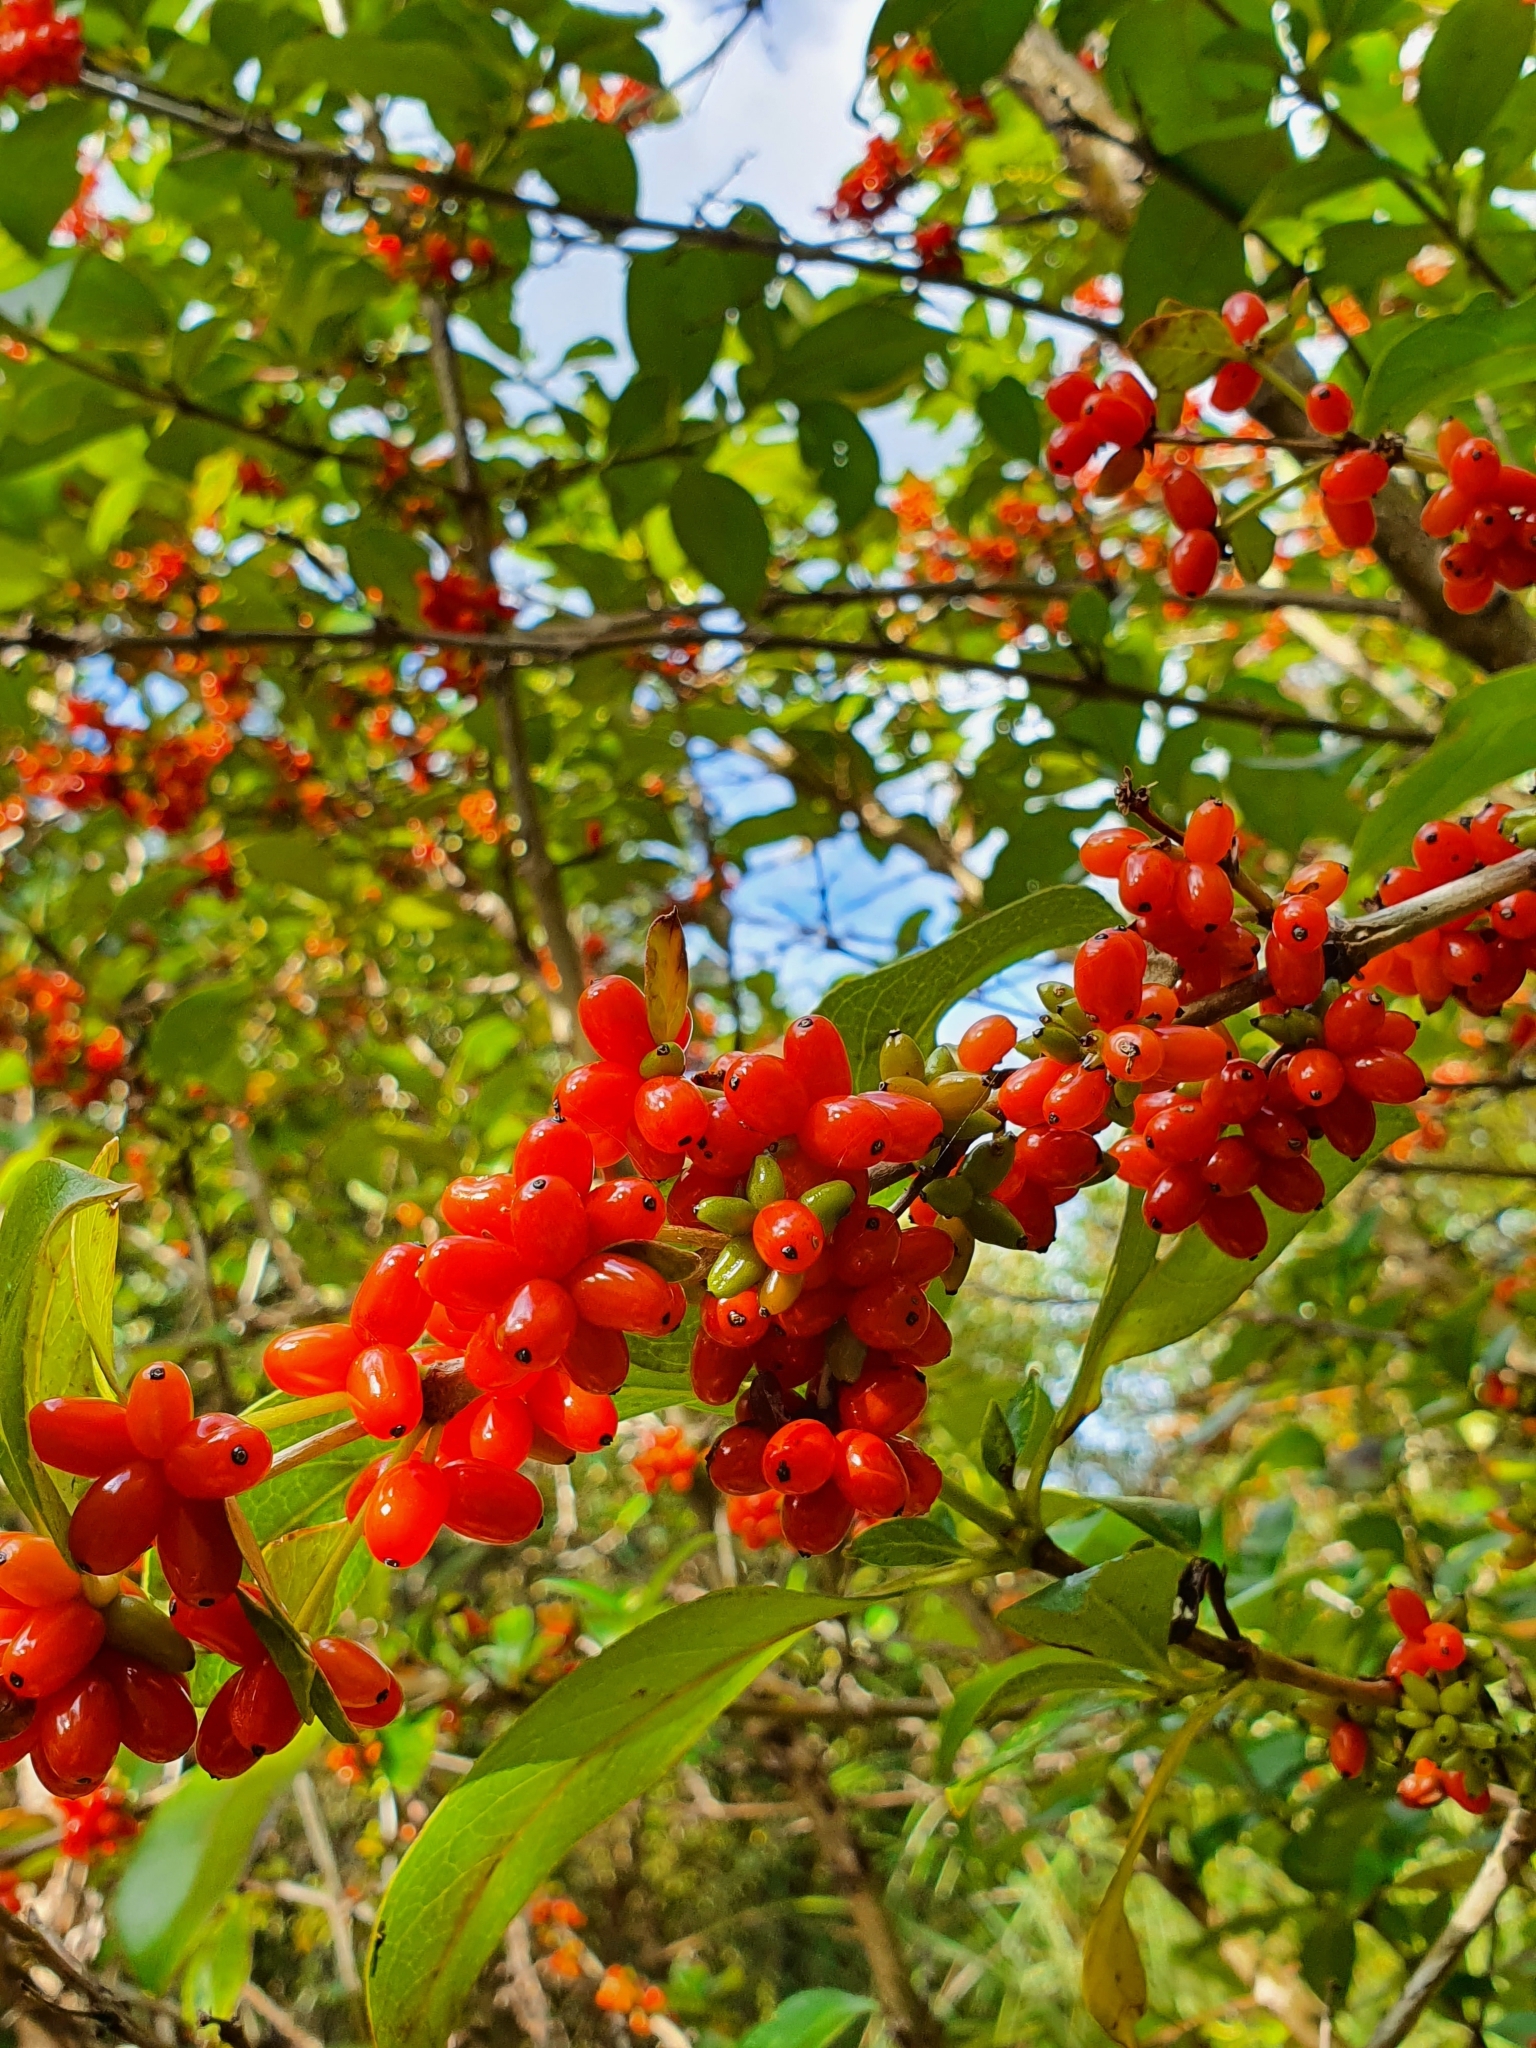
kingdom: Plantae
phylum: Tracheophyta
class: Magnoliopsida
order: Gentianales
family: Rubiaceae
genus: Coprosma
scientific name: Coprosma robusta
